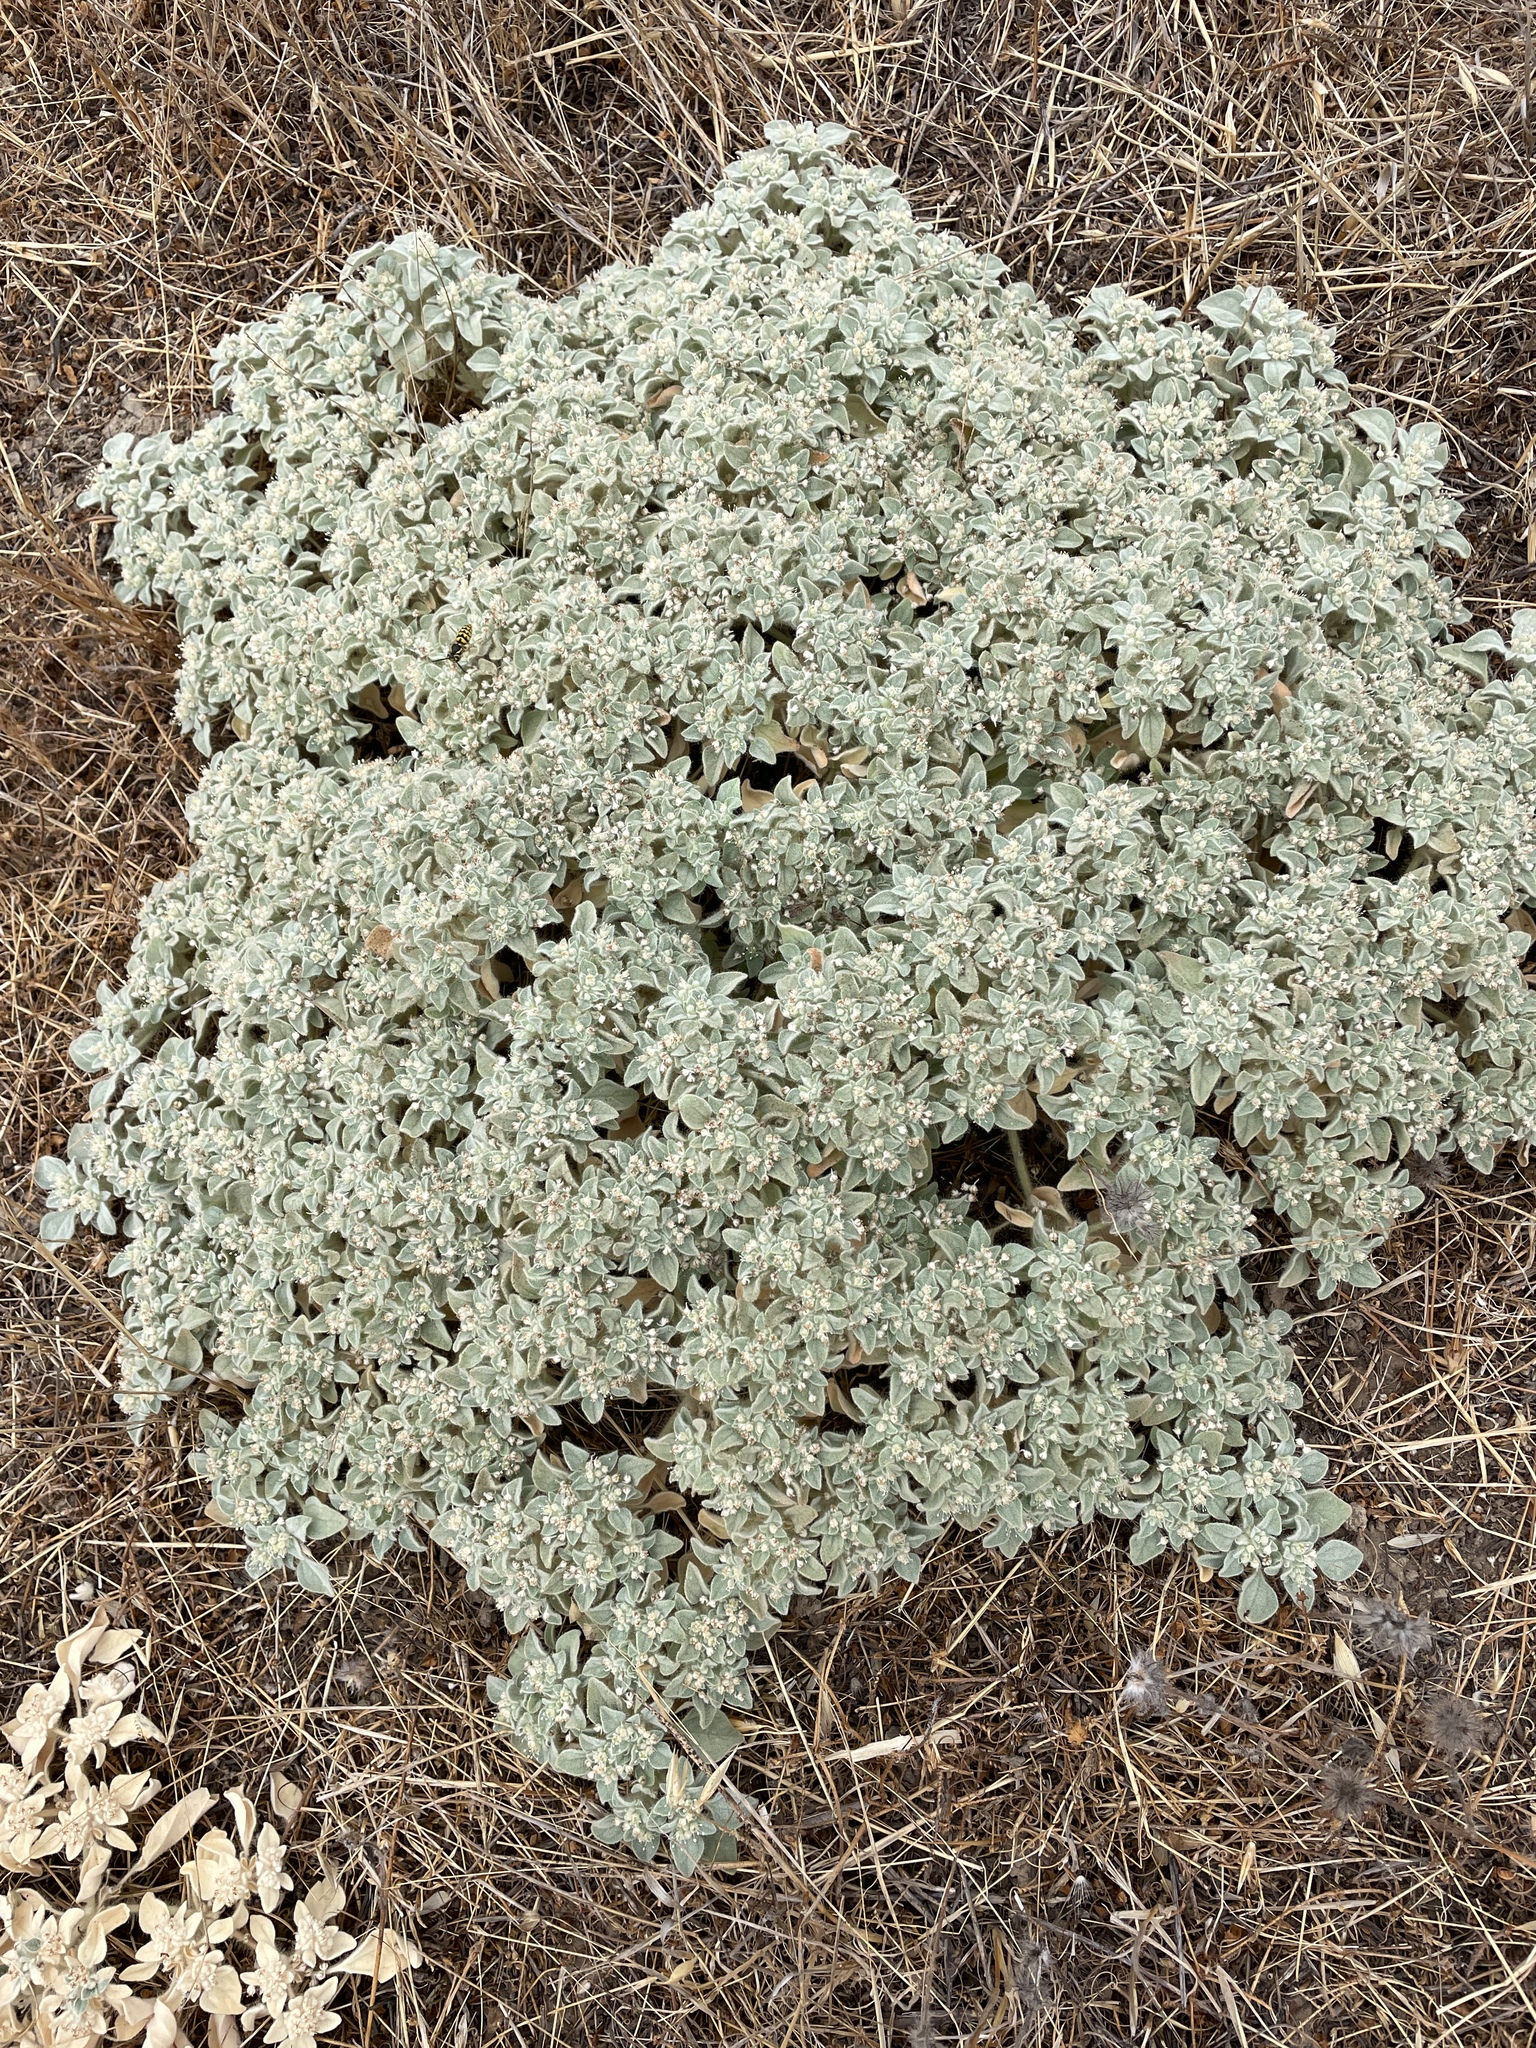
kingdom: Plantae
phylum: Tracheophyta
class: Magnoliopsida
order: Malpighiales
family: Euphorbiaceae
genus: Croton
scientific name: Croton setiger
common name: Dove weed
